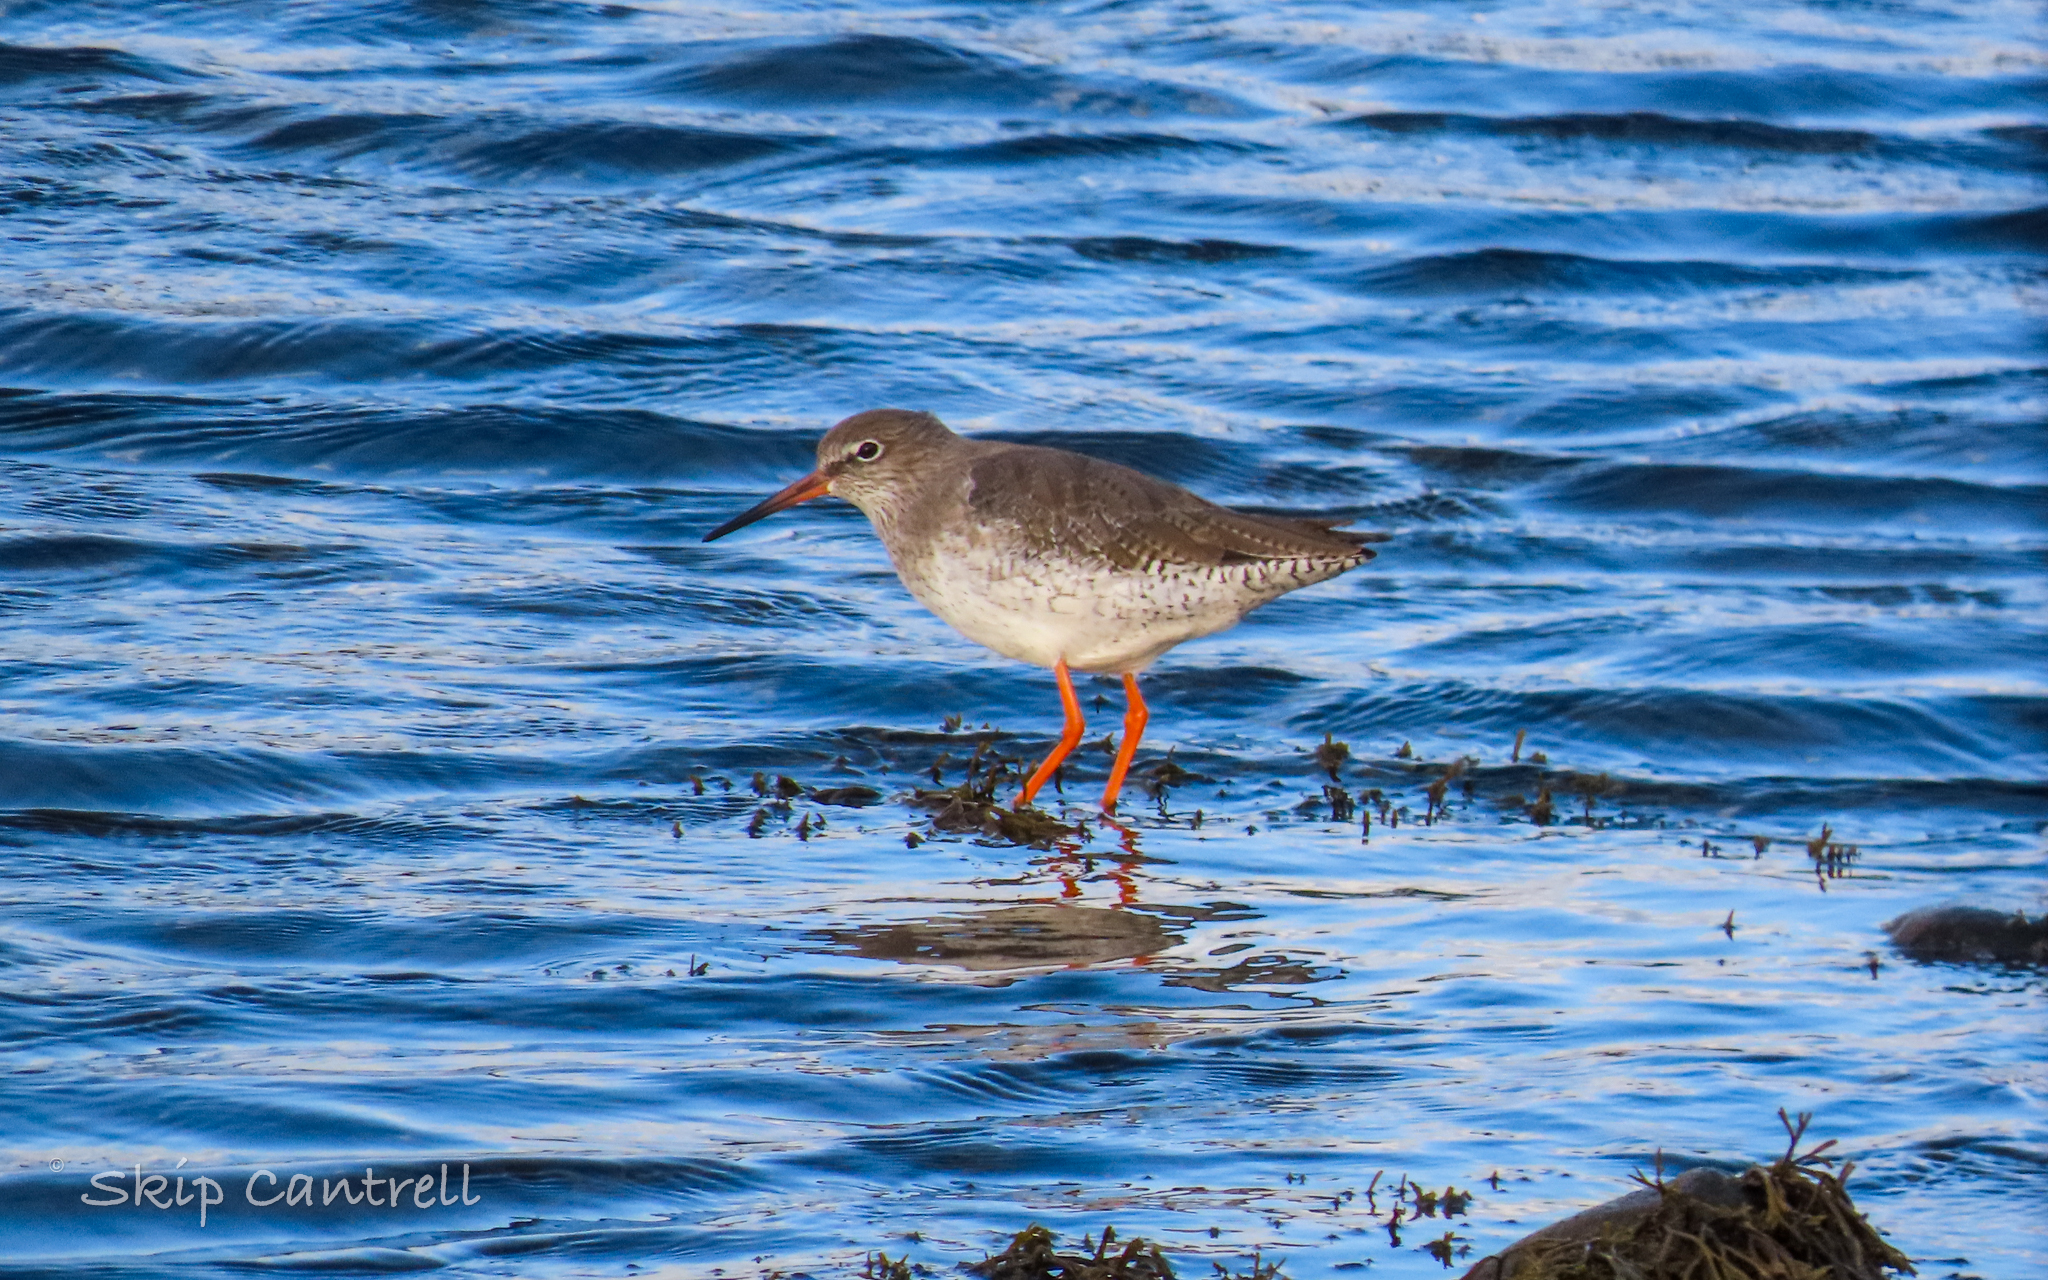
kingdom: Animalia
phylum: Chordata
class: Aves
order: Charadriiformes
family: Scolopacidae
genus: Tringa
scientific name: Tringa totanus
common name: Common redshank
